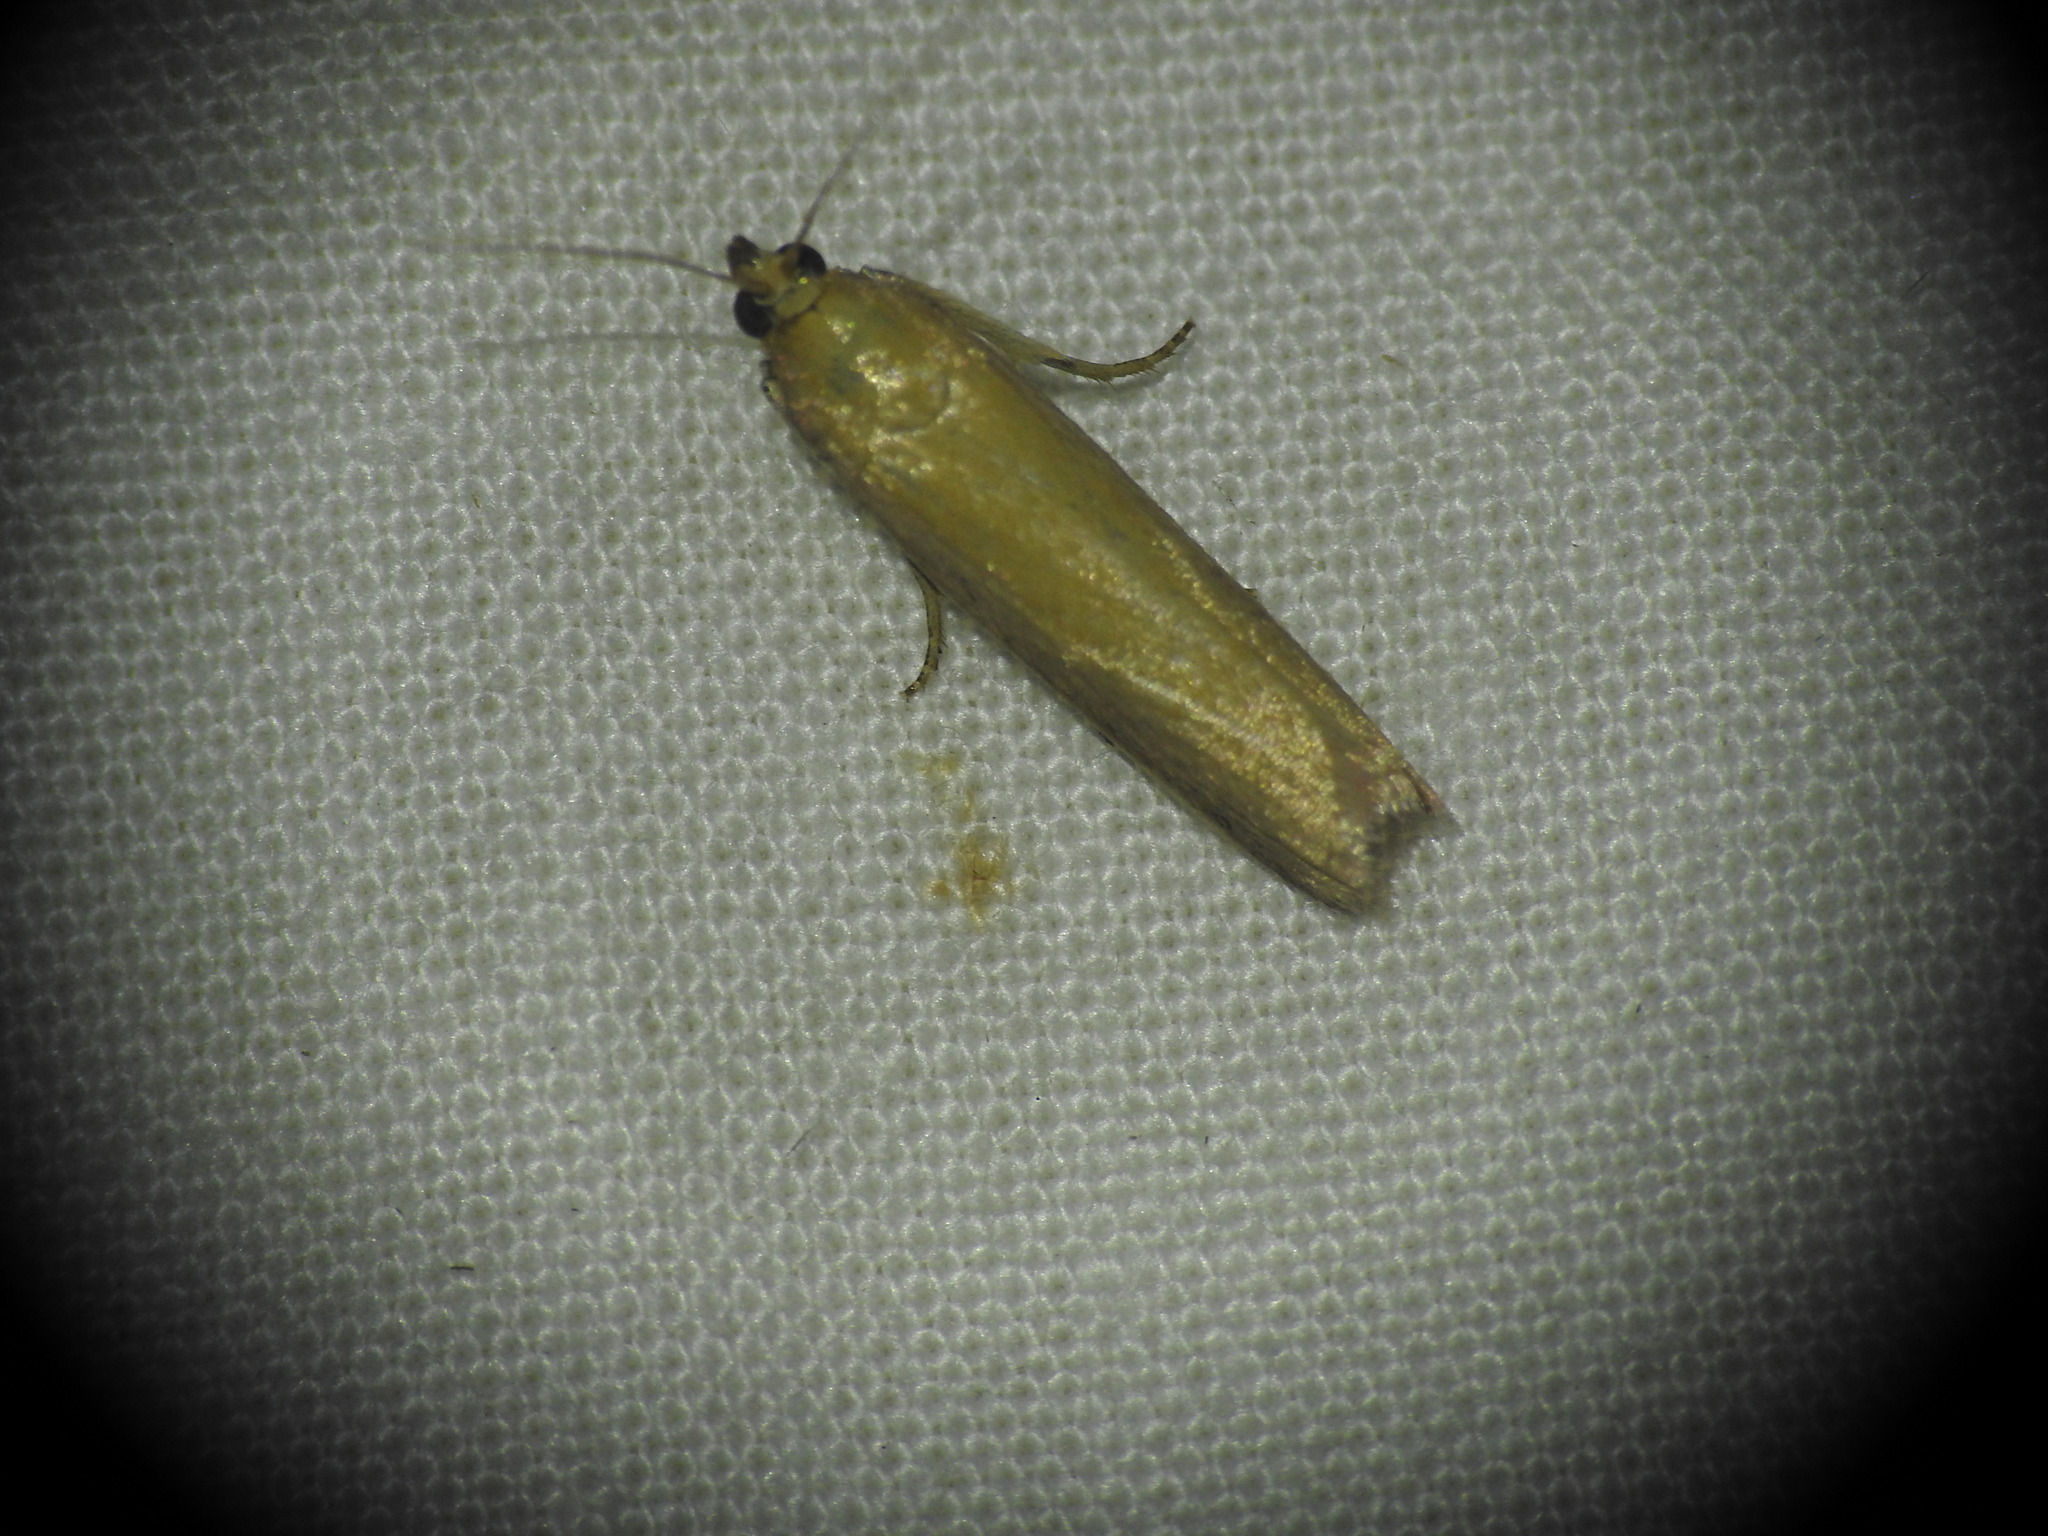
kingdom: Animalia
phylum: Arthropoda
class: Insecta
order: Lepidoptera
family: Pyralidae
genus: Oncocera
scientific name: Oncocera semirubella
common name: Rosy-striped knot-horn
